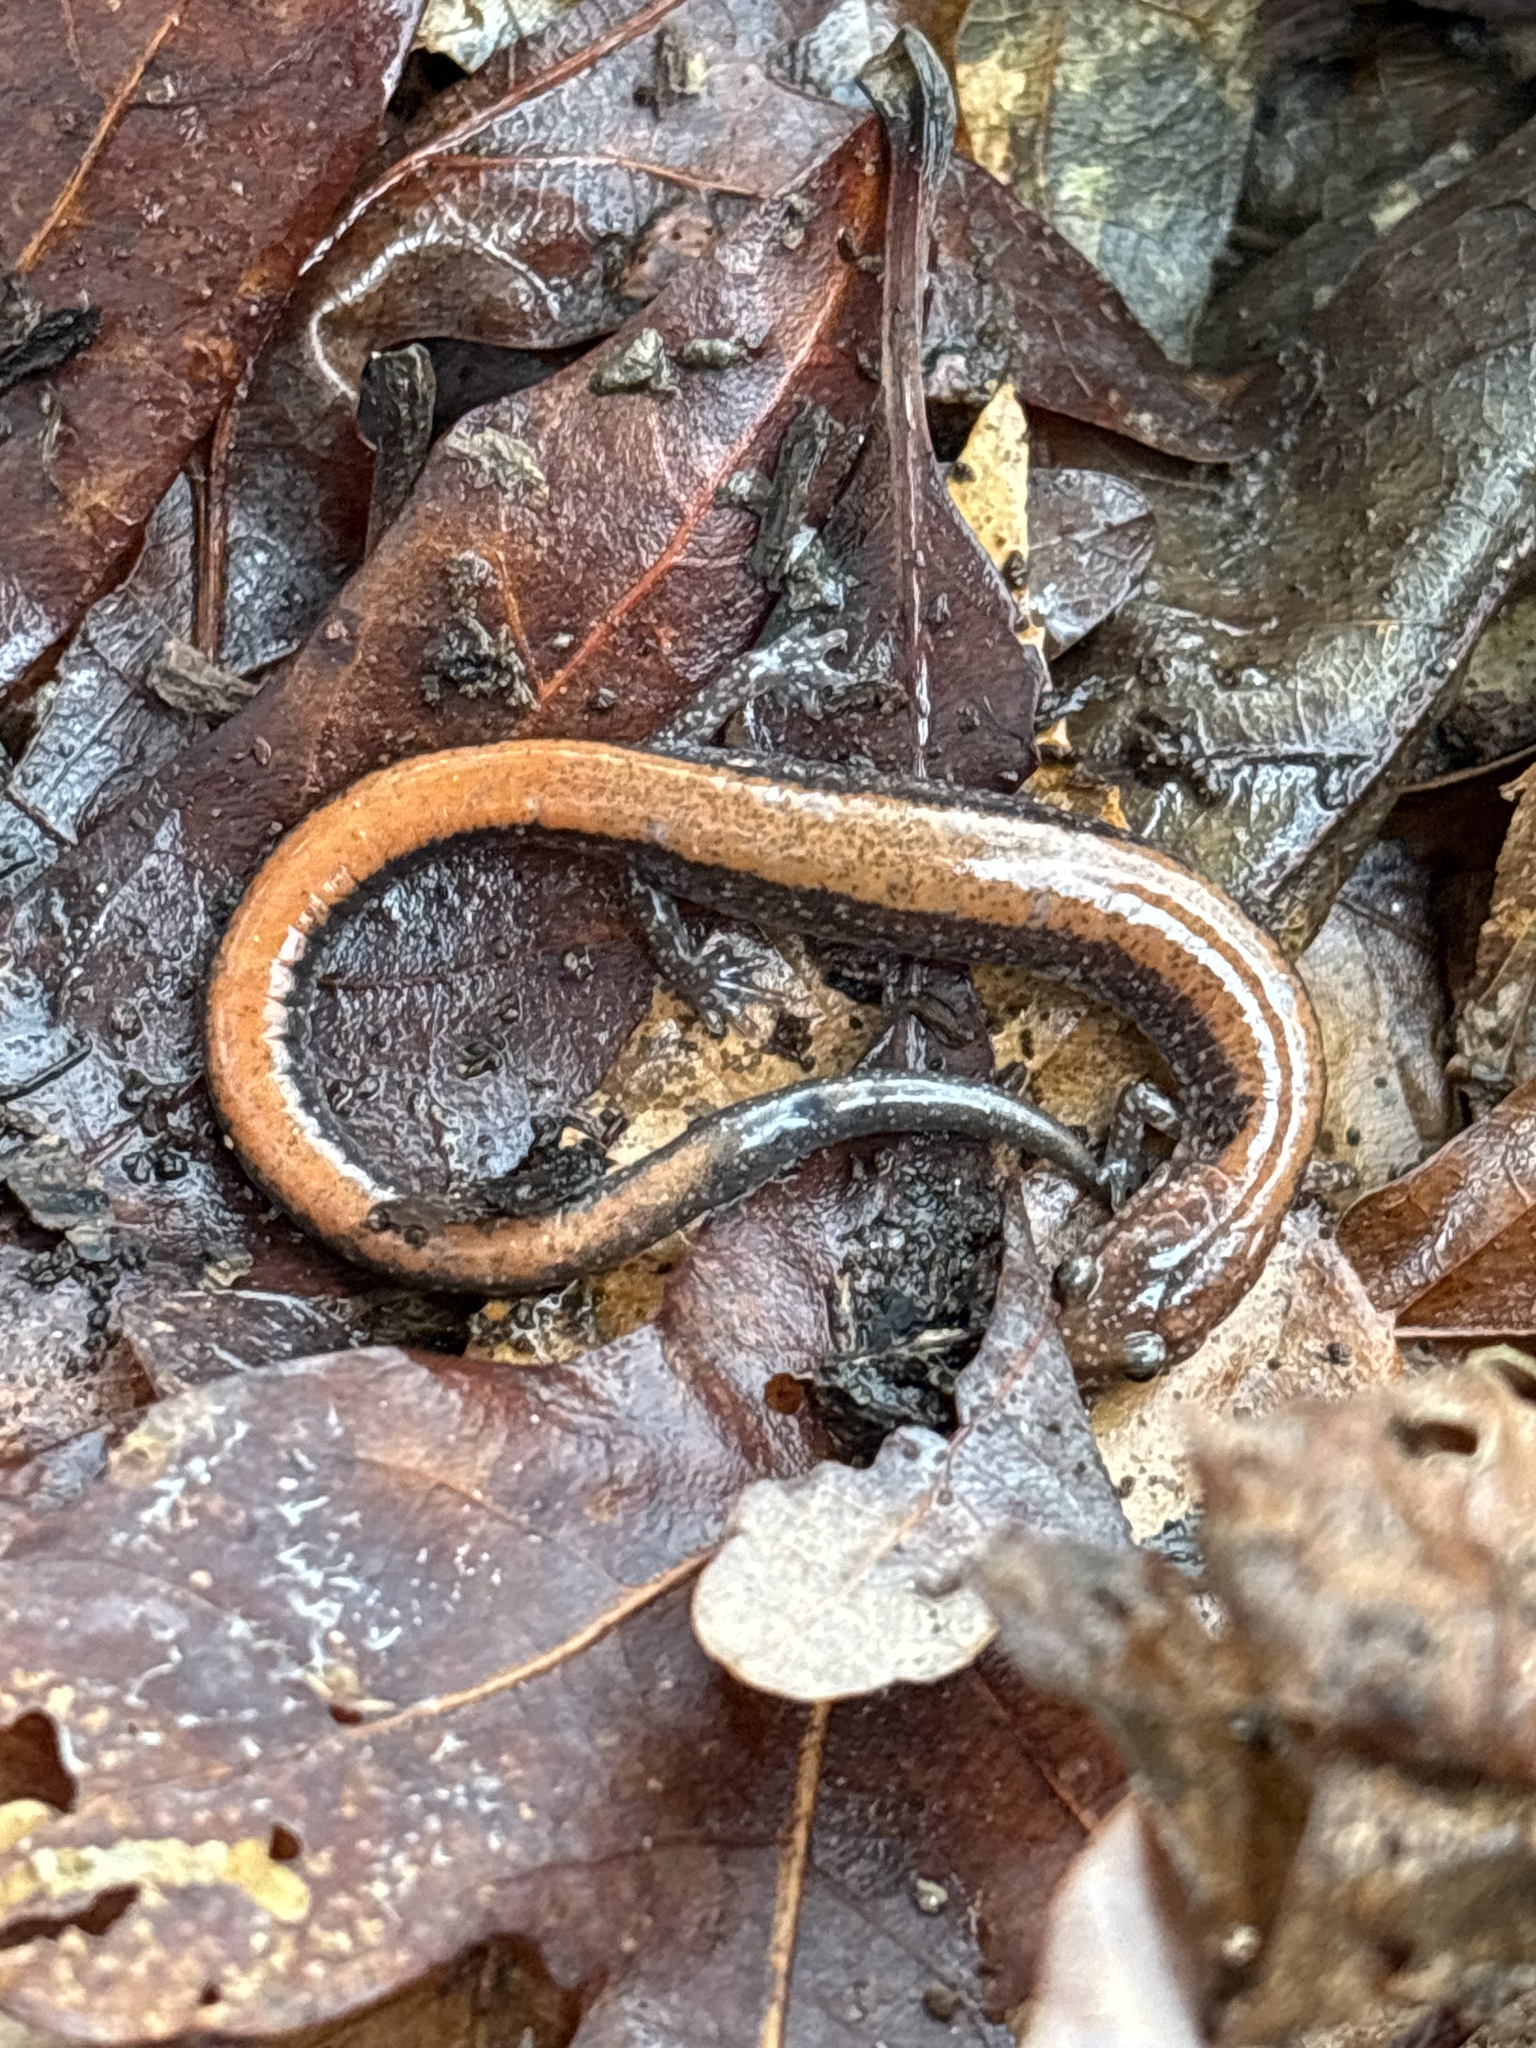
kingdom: Animalia
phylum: Chordata
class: Amphibia
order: Caudata
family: Plethodontidae
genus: Plethodon
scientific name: Plethodon cinereus
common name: Redback salamander
